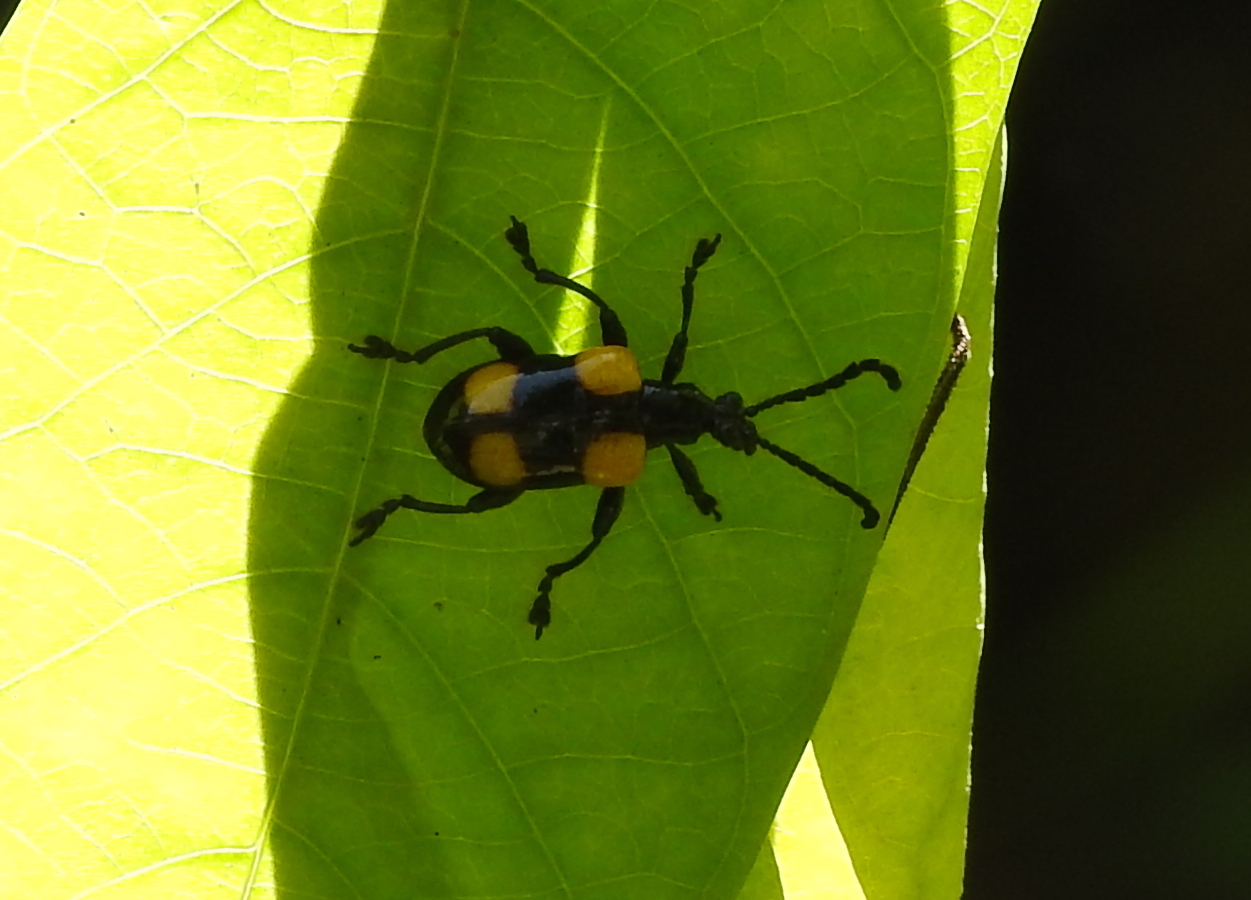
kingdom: Animalia
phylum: Arthropoda
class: Insecta
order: Coleoptera
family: Chrysomelidae
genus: Lilioceris
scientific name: Lilioceris
